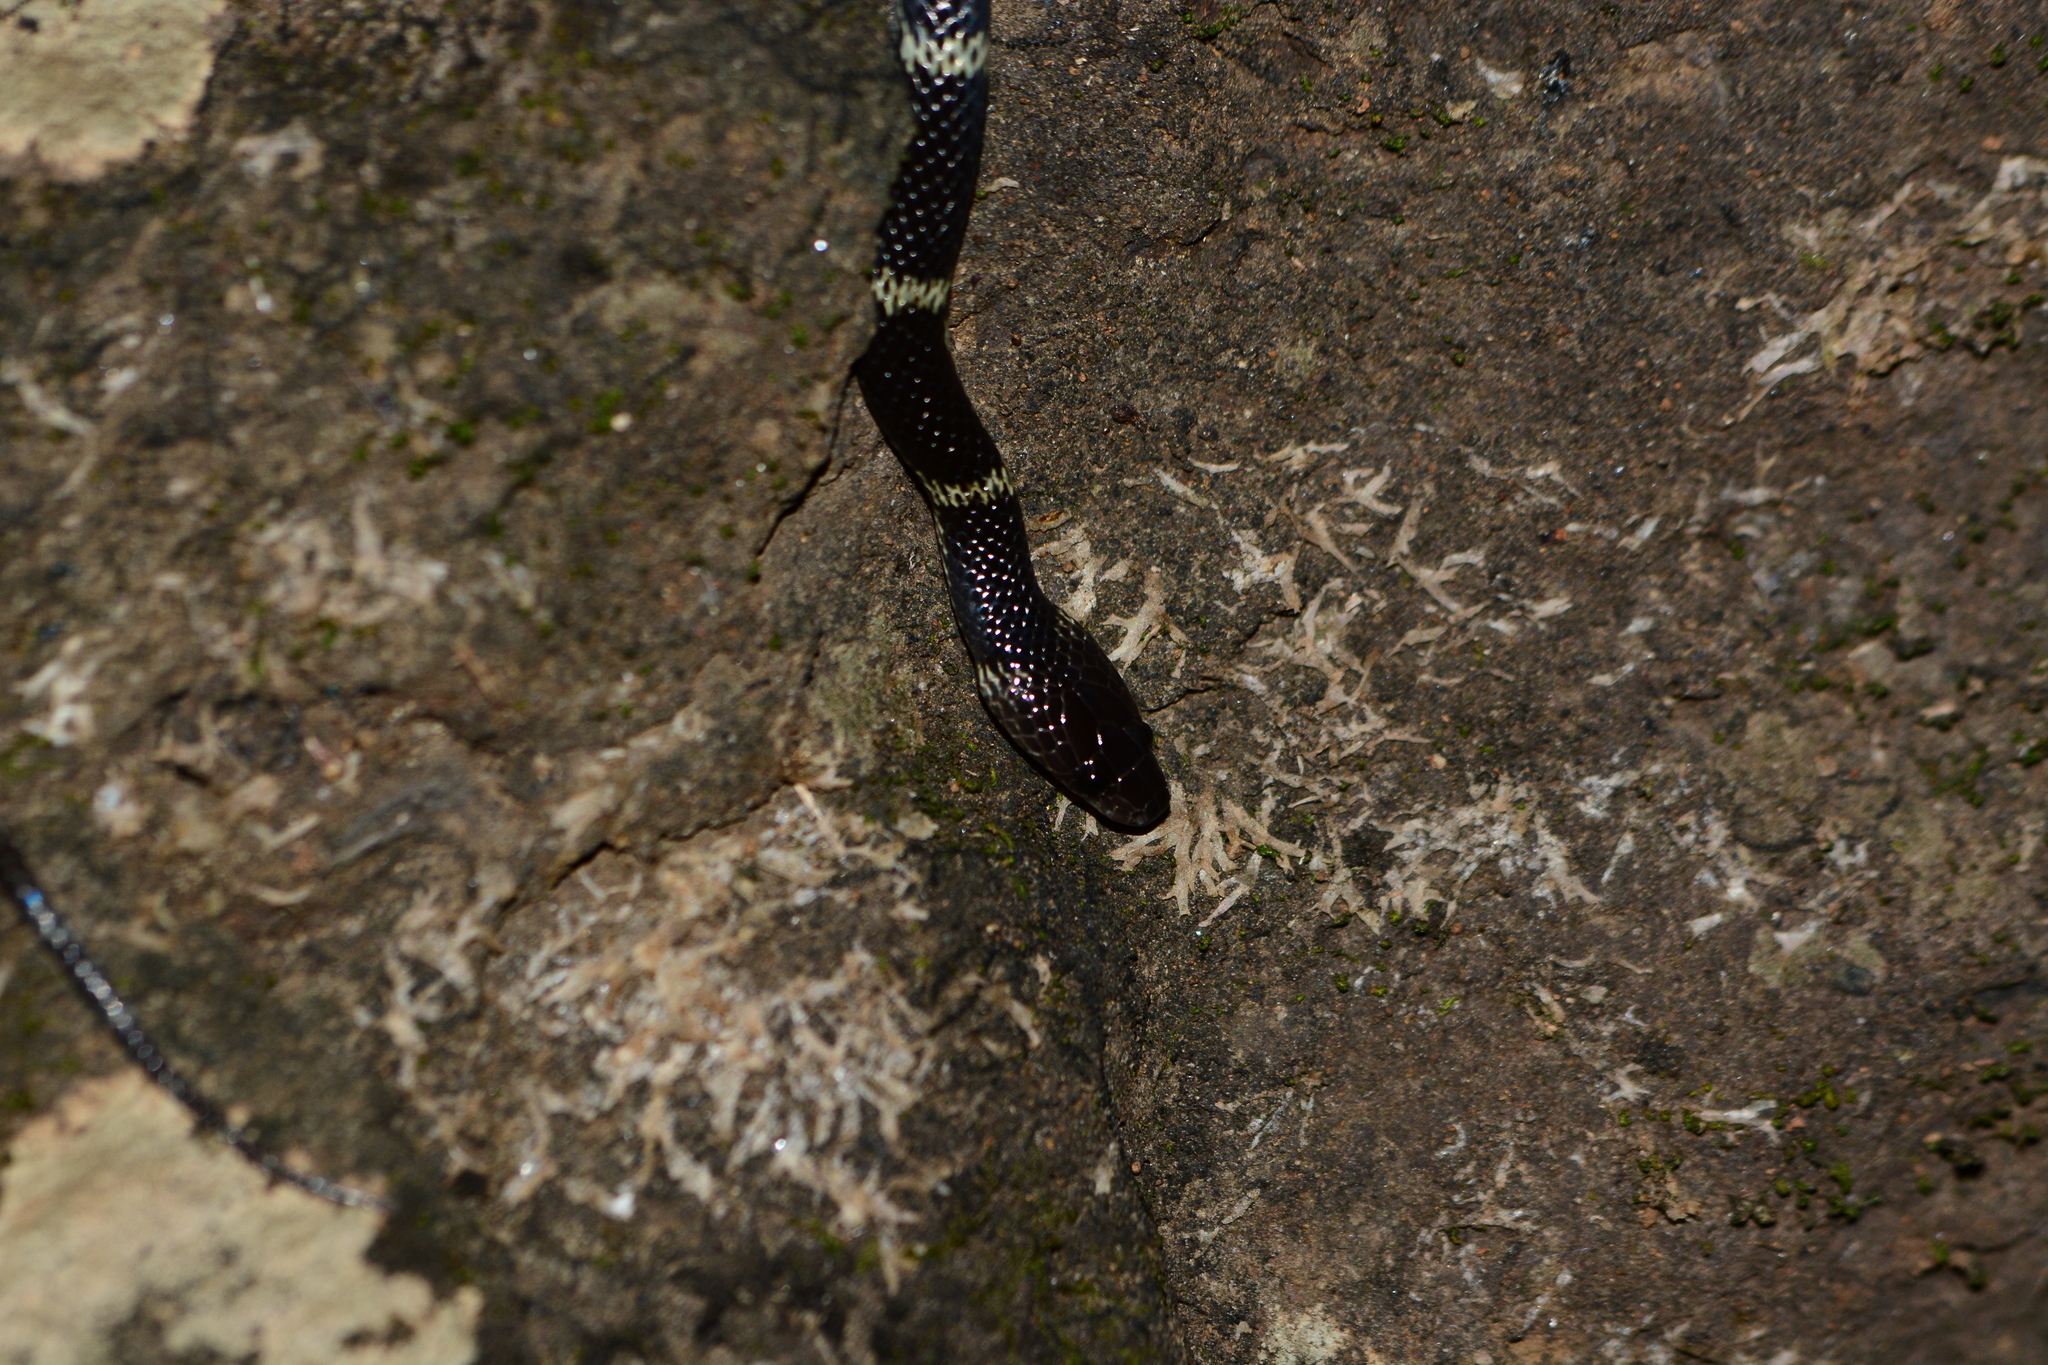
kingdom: Animalia
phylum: Chordata
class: Squamata
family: Colubridae
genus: Lycodon
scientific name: Lycodon travancoricus
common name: Travancore wolf snake
